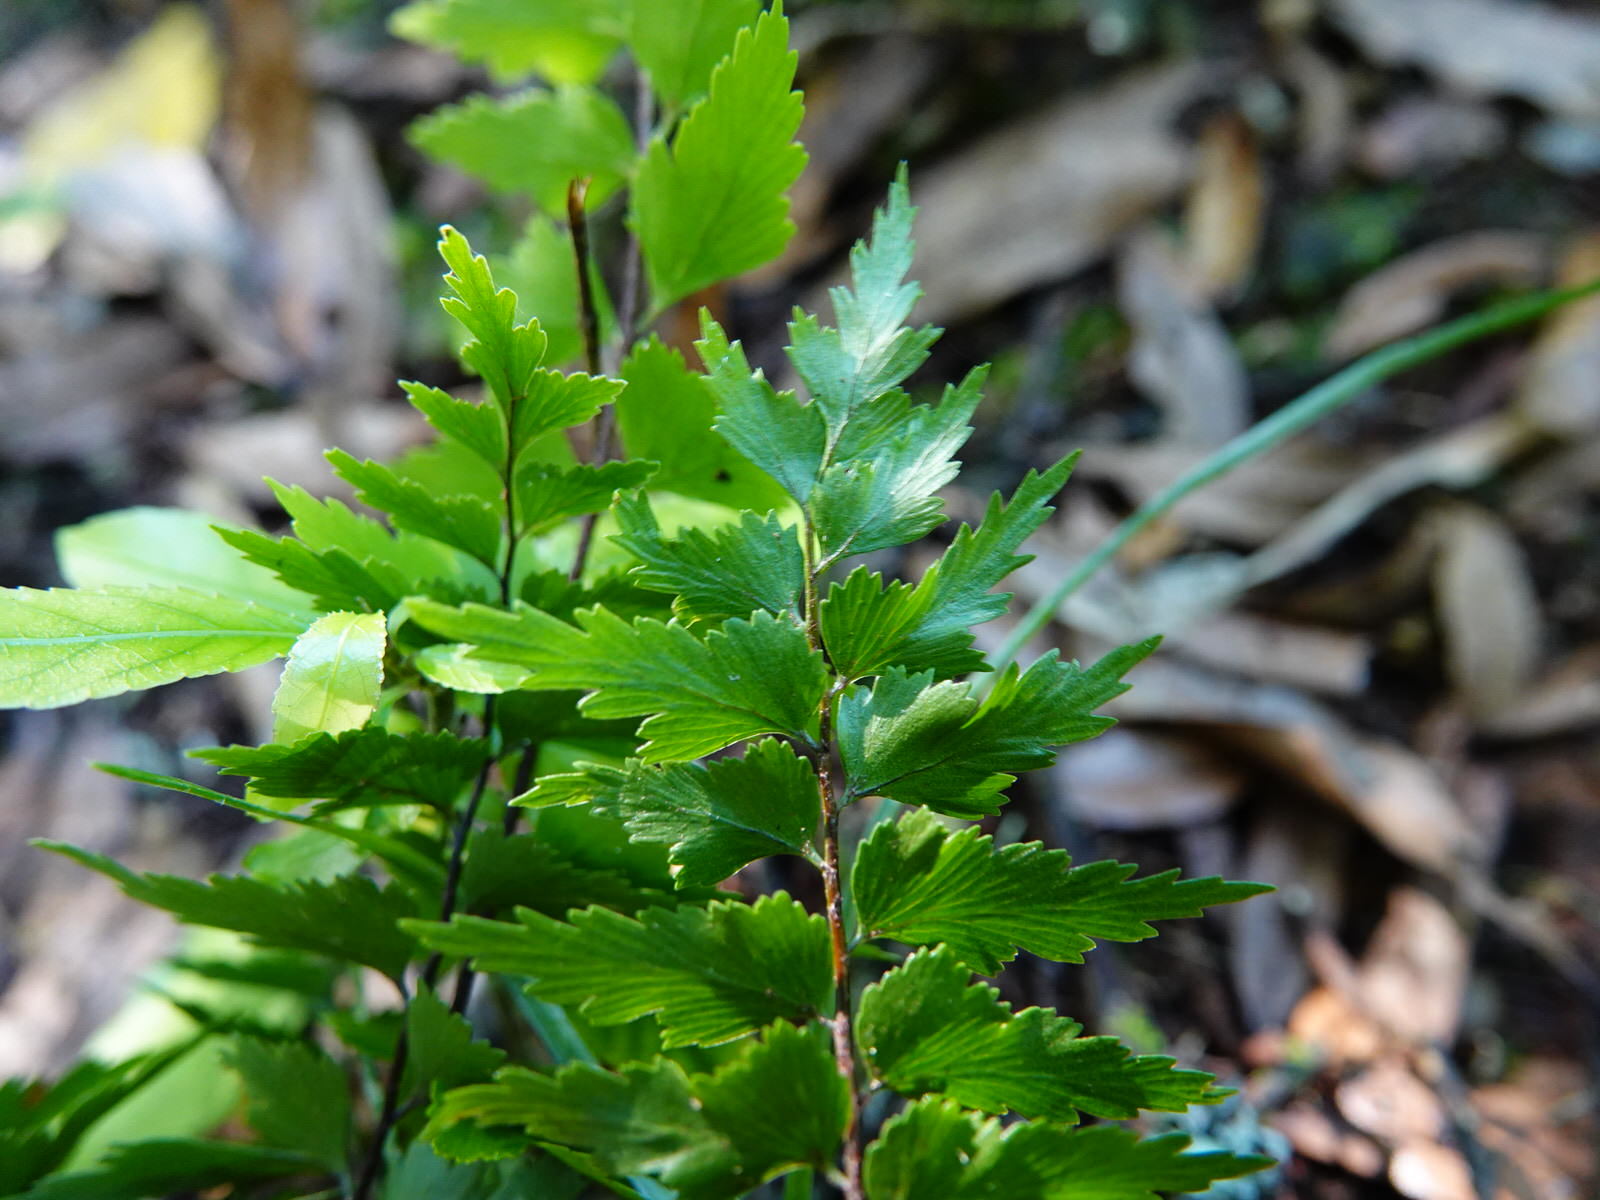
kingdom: Plantae
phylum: Tracheophyta
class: Polypodiopsida
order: Polypodiales
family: Aspleniaceae
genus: Asplenium
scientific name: Asplenium polyodon
